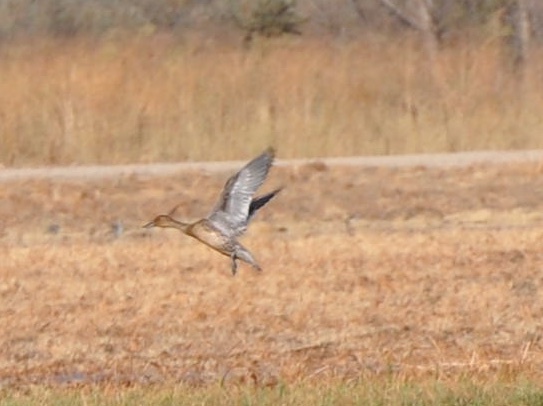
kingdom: Animalia
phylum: Chordata
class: Aves
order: Anseriformes
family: Anatidae
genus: Anas
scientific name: Anas acuta
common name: Northern pintail
